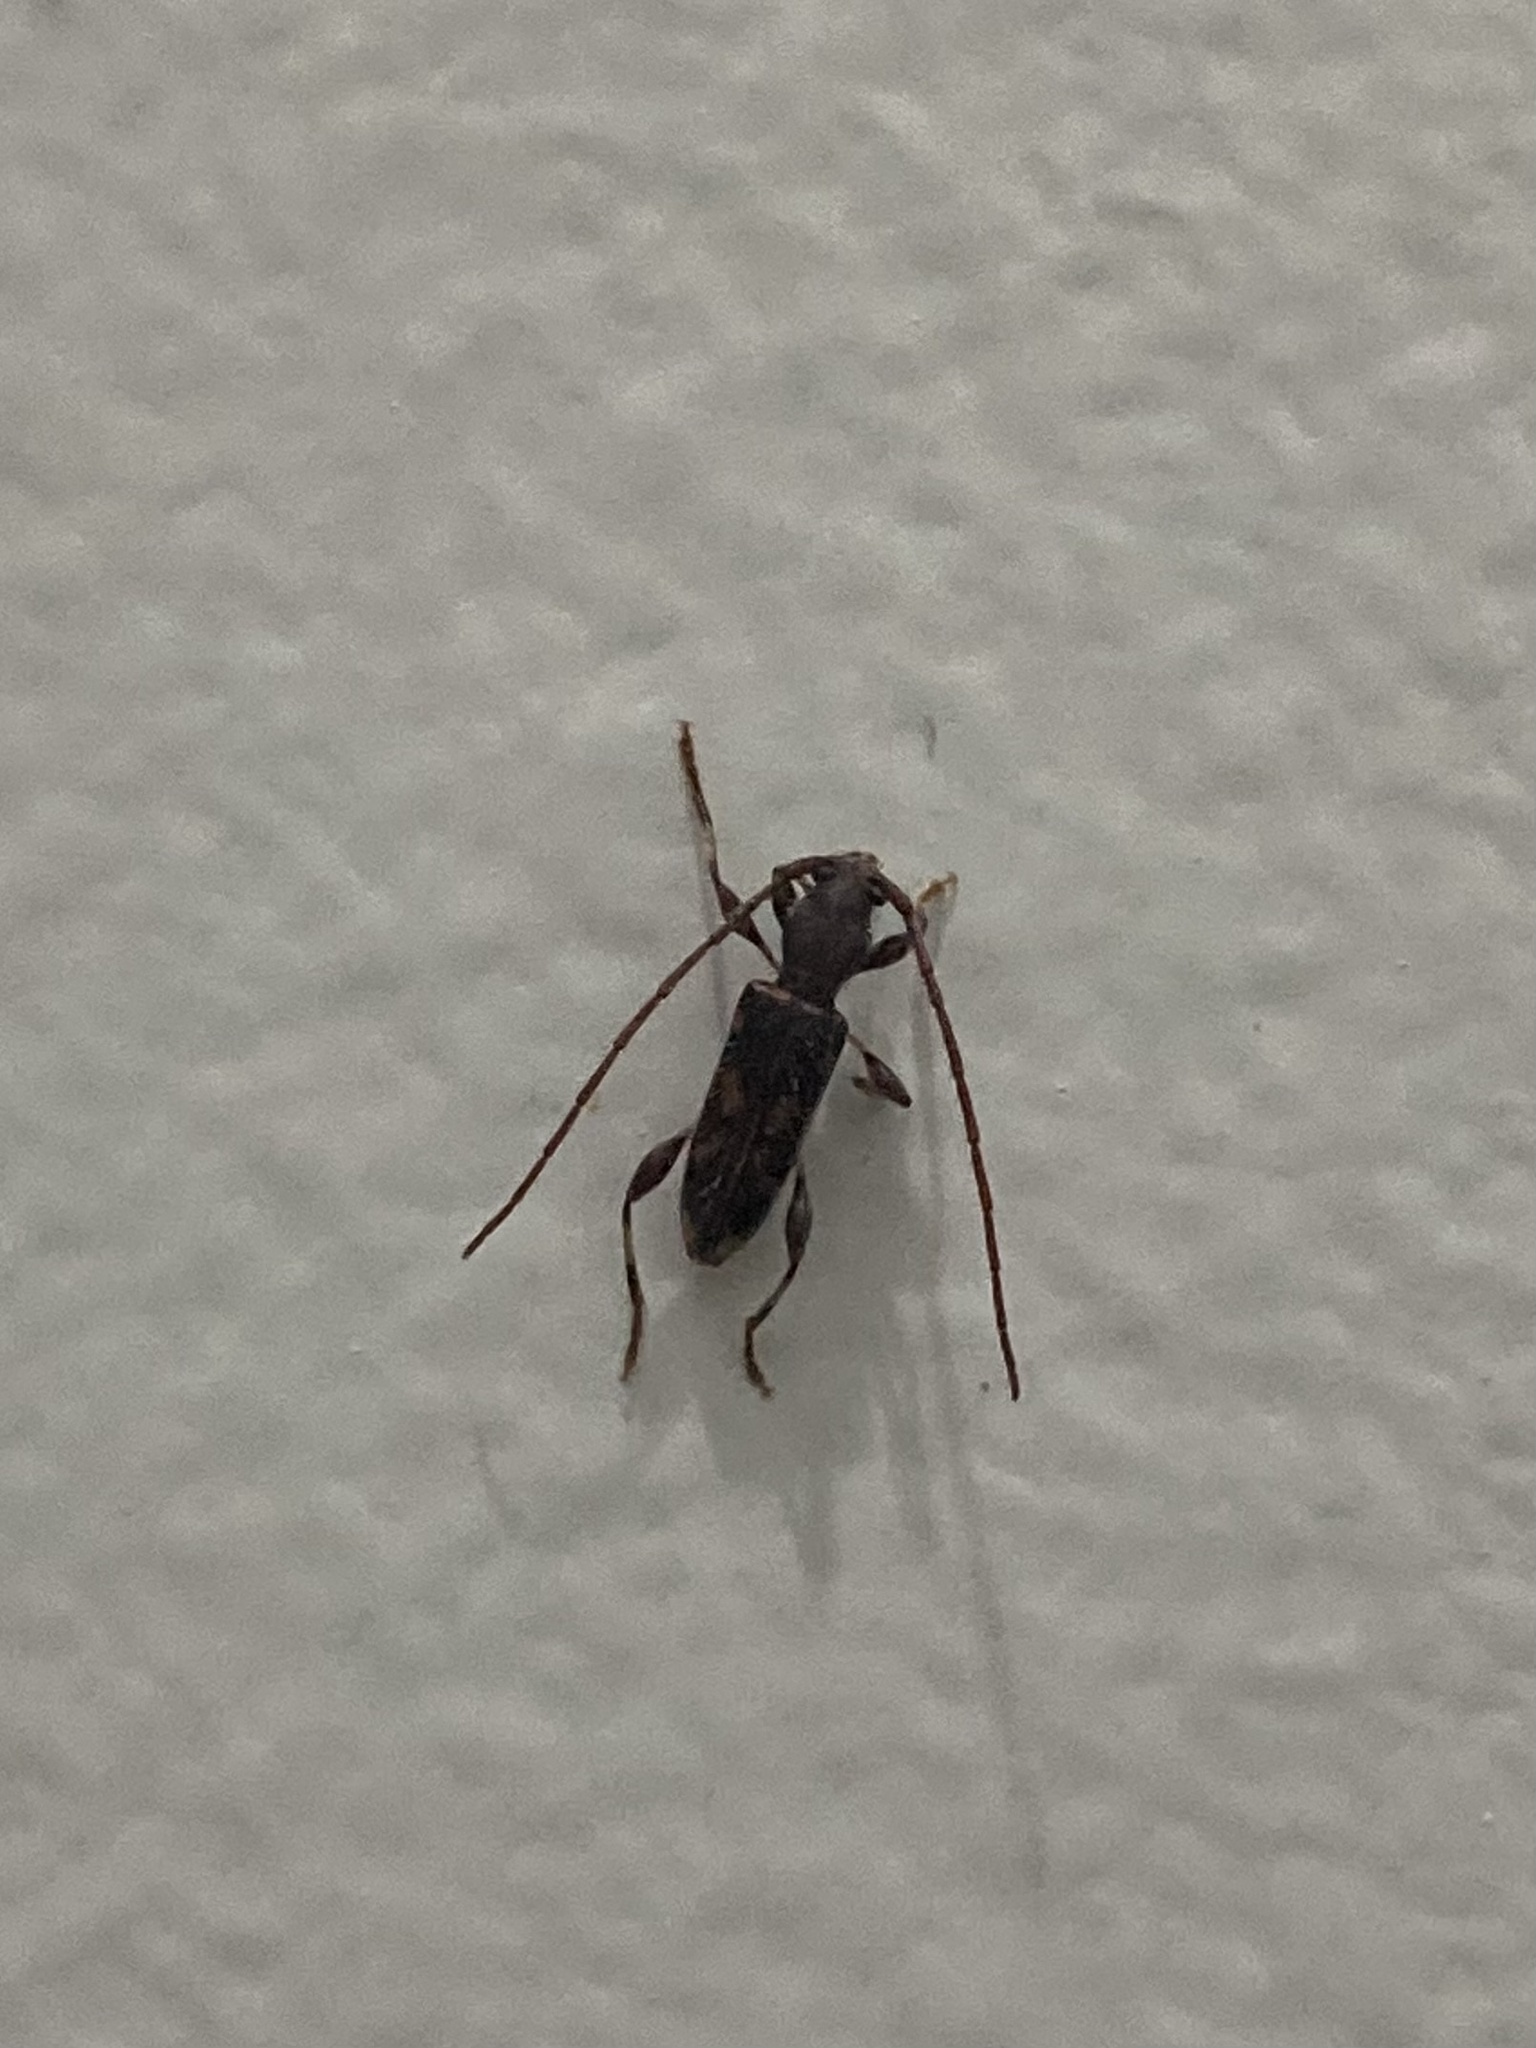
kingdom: Animalia
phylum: Arthropoda
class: Insecta
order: Coleoptera
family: Cerambycidae
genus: Bethelium
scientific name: Bethelium signiferum
